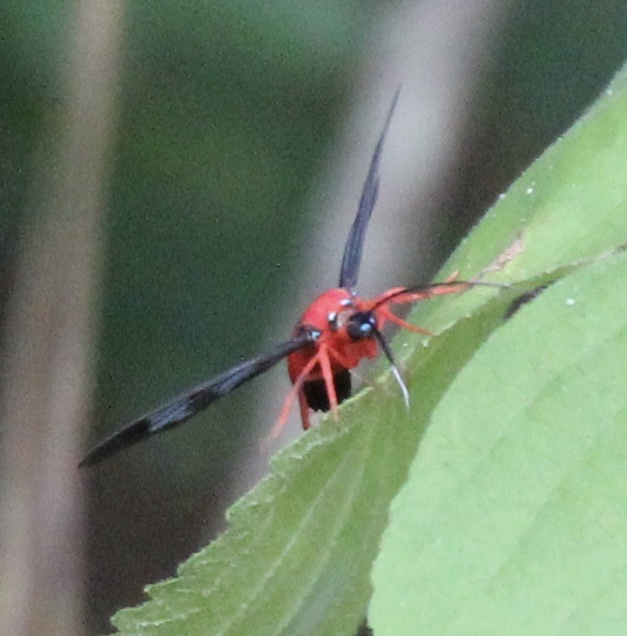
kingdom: Animalia
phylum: Arthropoda
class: Insecta
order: Lepidoptera
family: Erebidae
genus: Cosmosoma
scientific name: Cosmosoma myrodora
